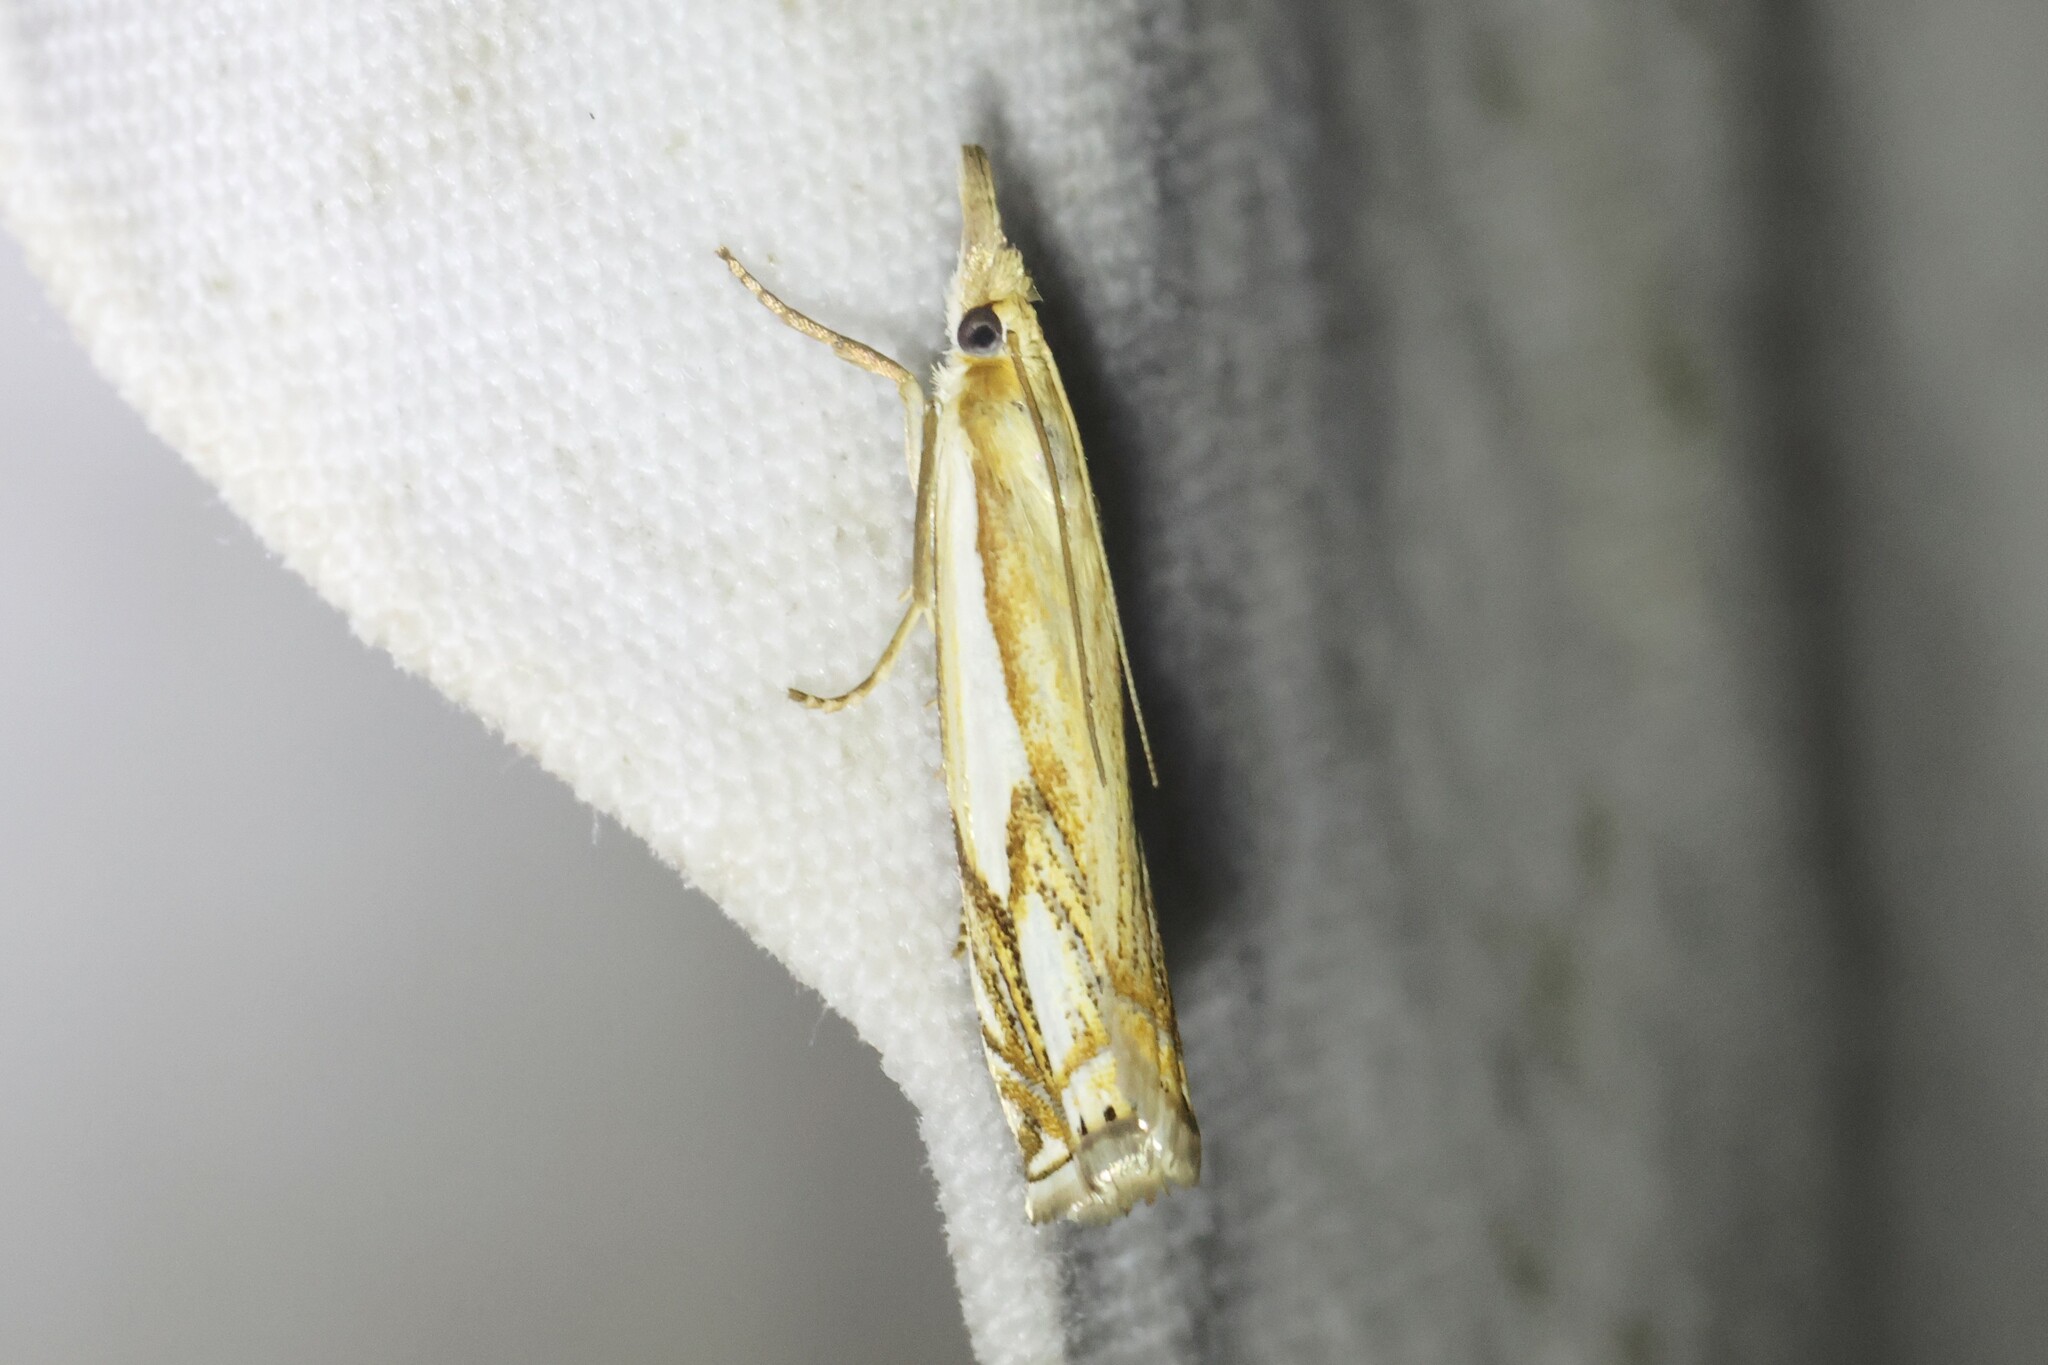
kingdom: Animalia
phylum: Arthropoda
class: Insecta
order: Lepidoptera
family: Crambidae
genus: Crambus
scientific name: Crambus agitatellus
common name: Double-banded grass-veneer
